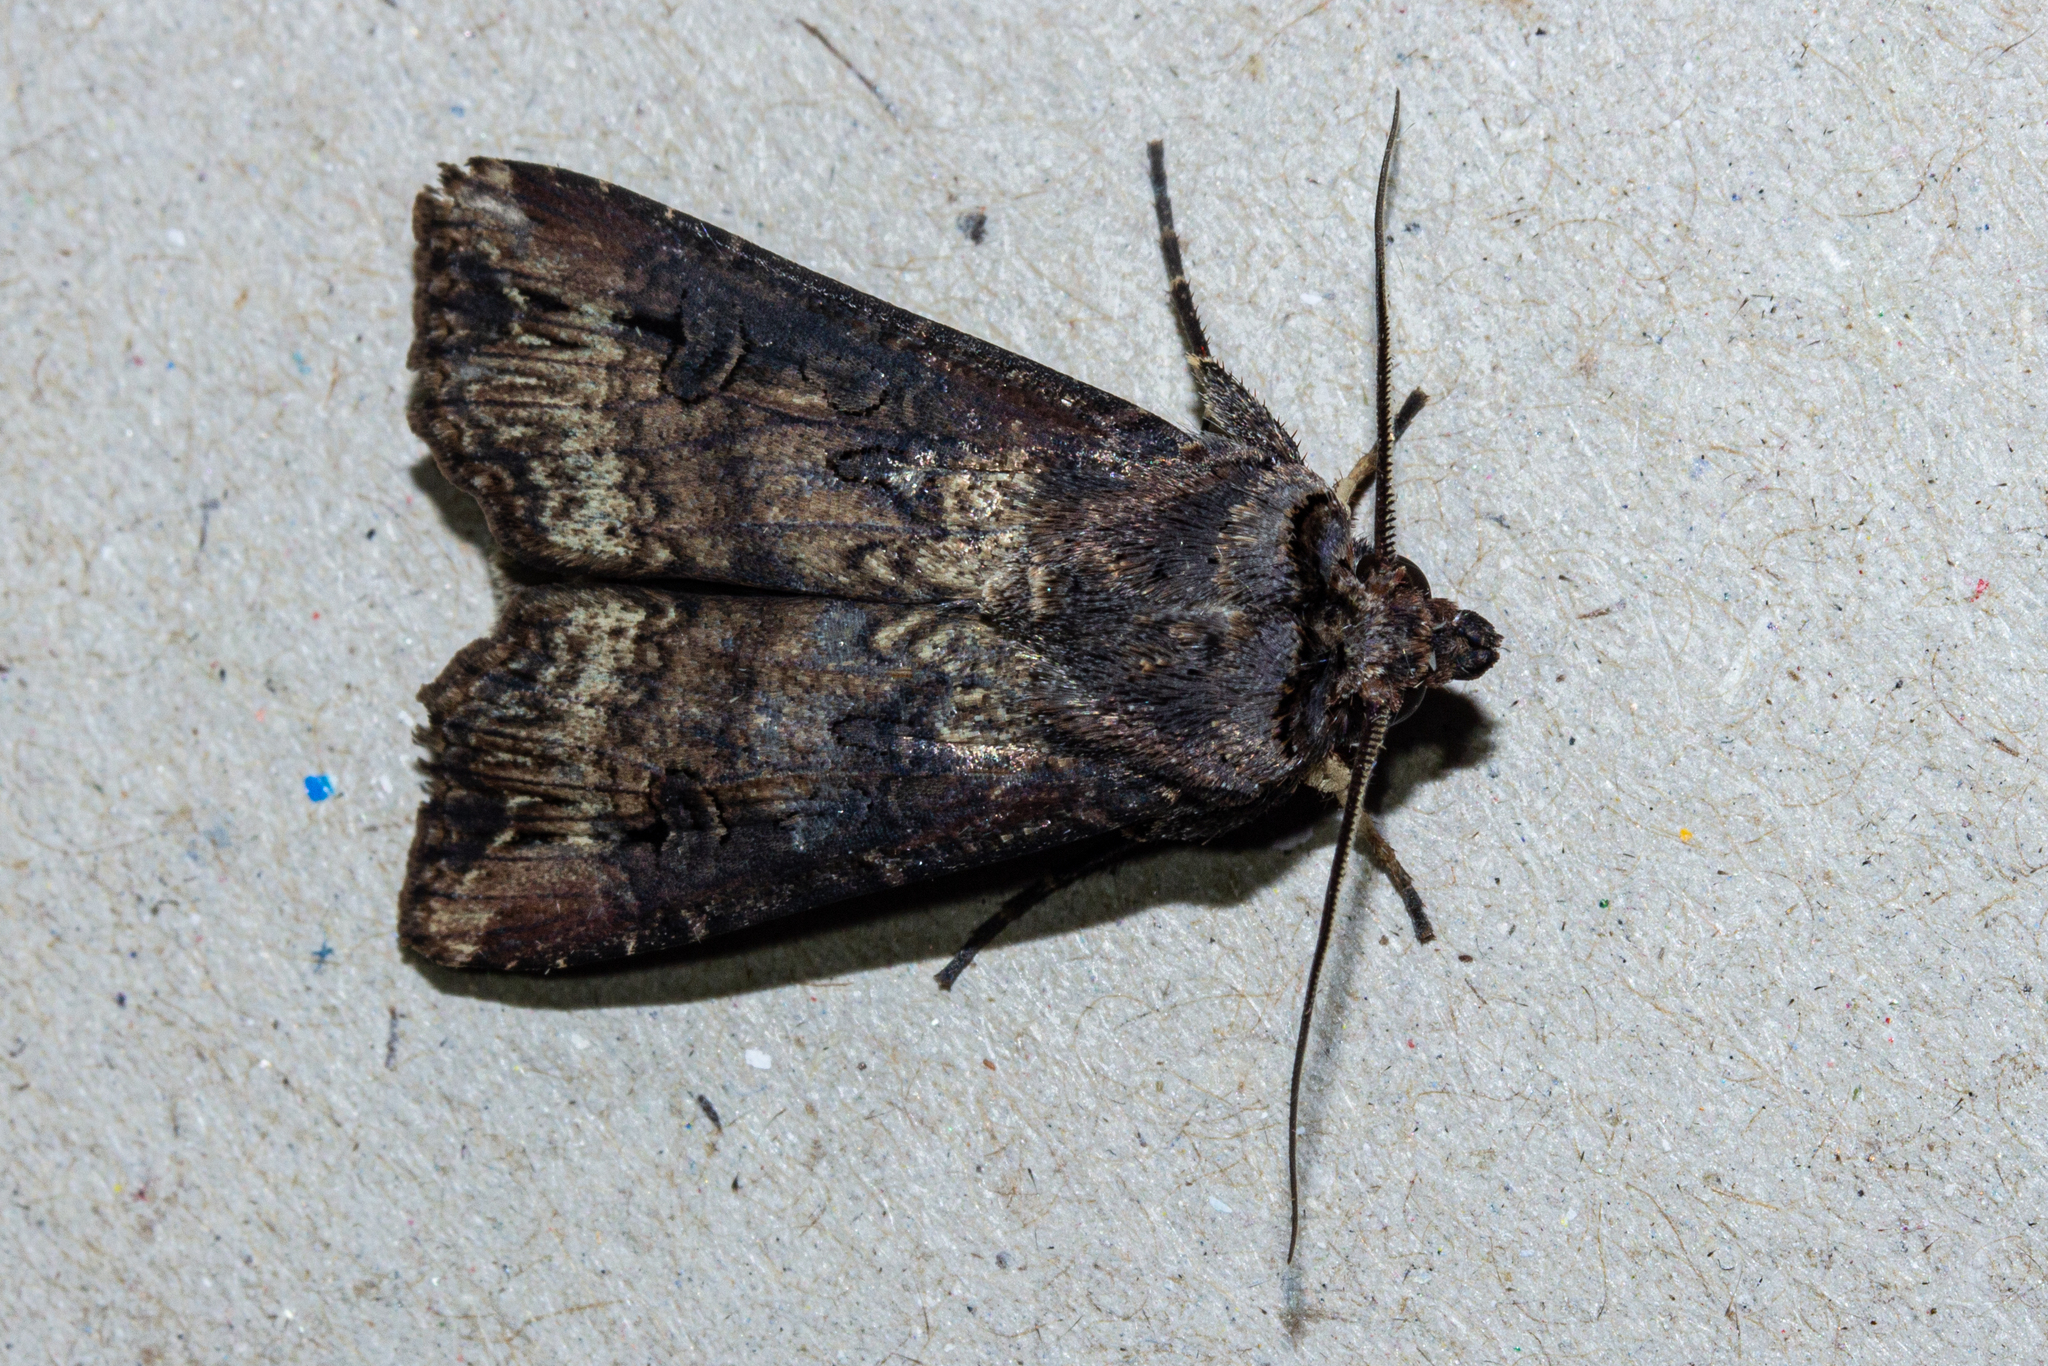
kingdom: Animalia
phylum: Arthropoda
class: Insecta
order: Lepidoptera
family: Noctuidae
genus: Agrotis
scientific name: Agrotis ipsilon
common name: Dark sword-grass
